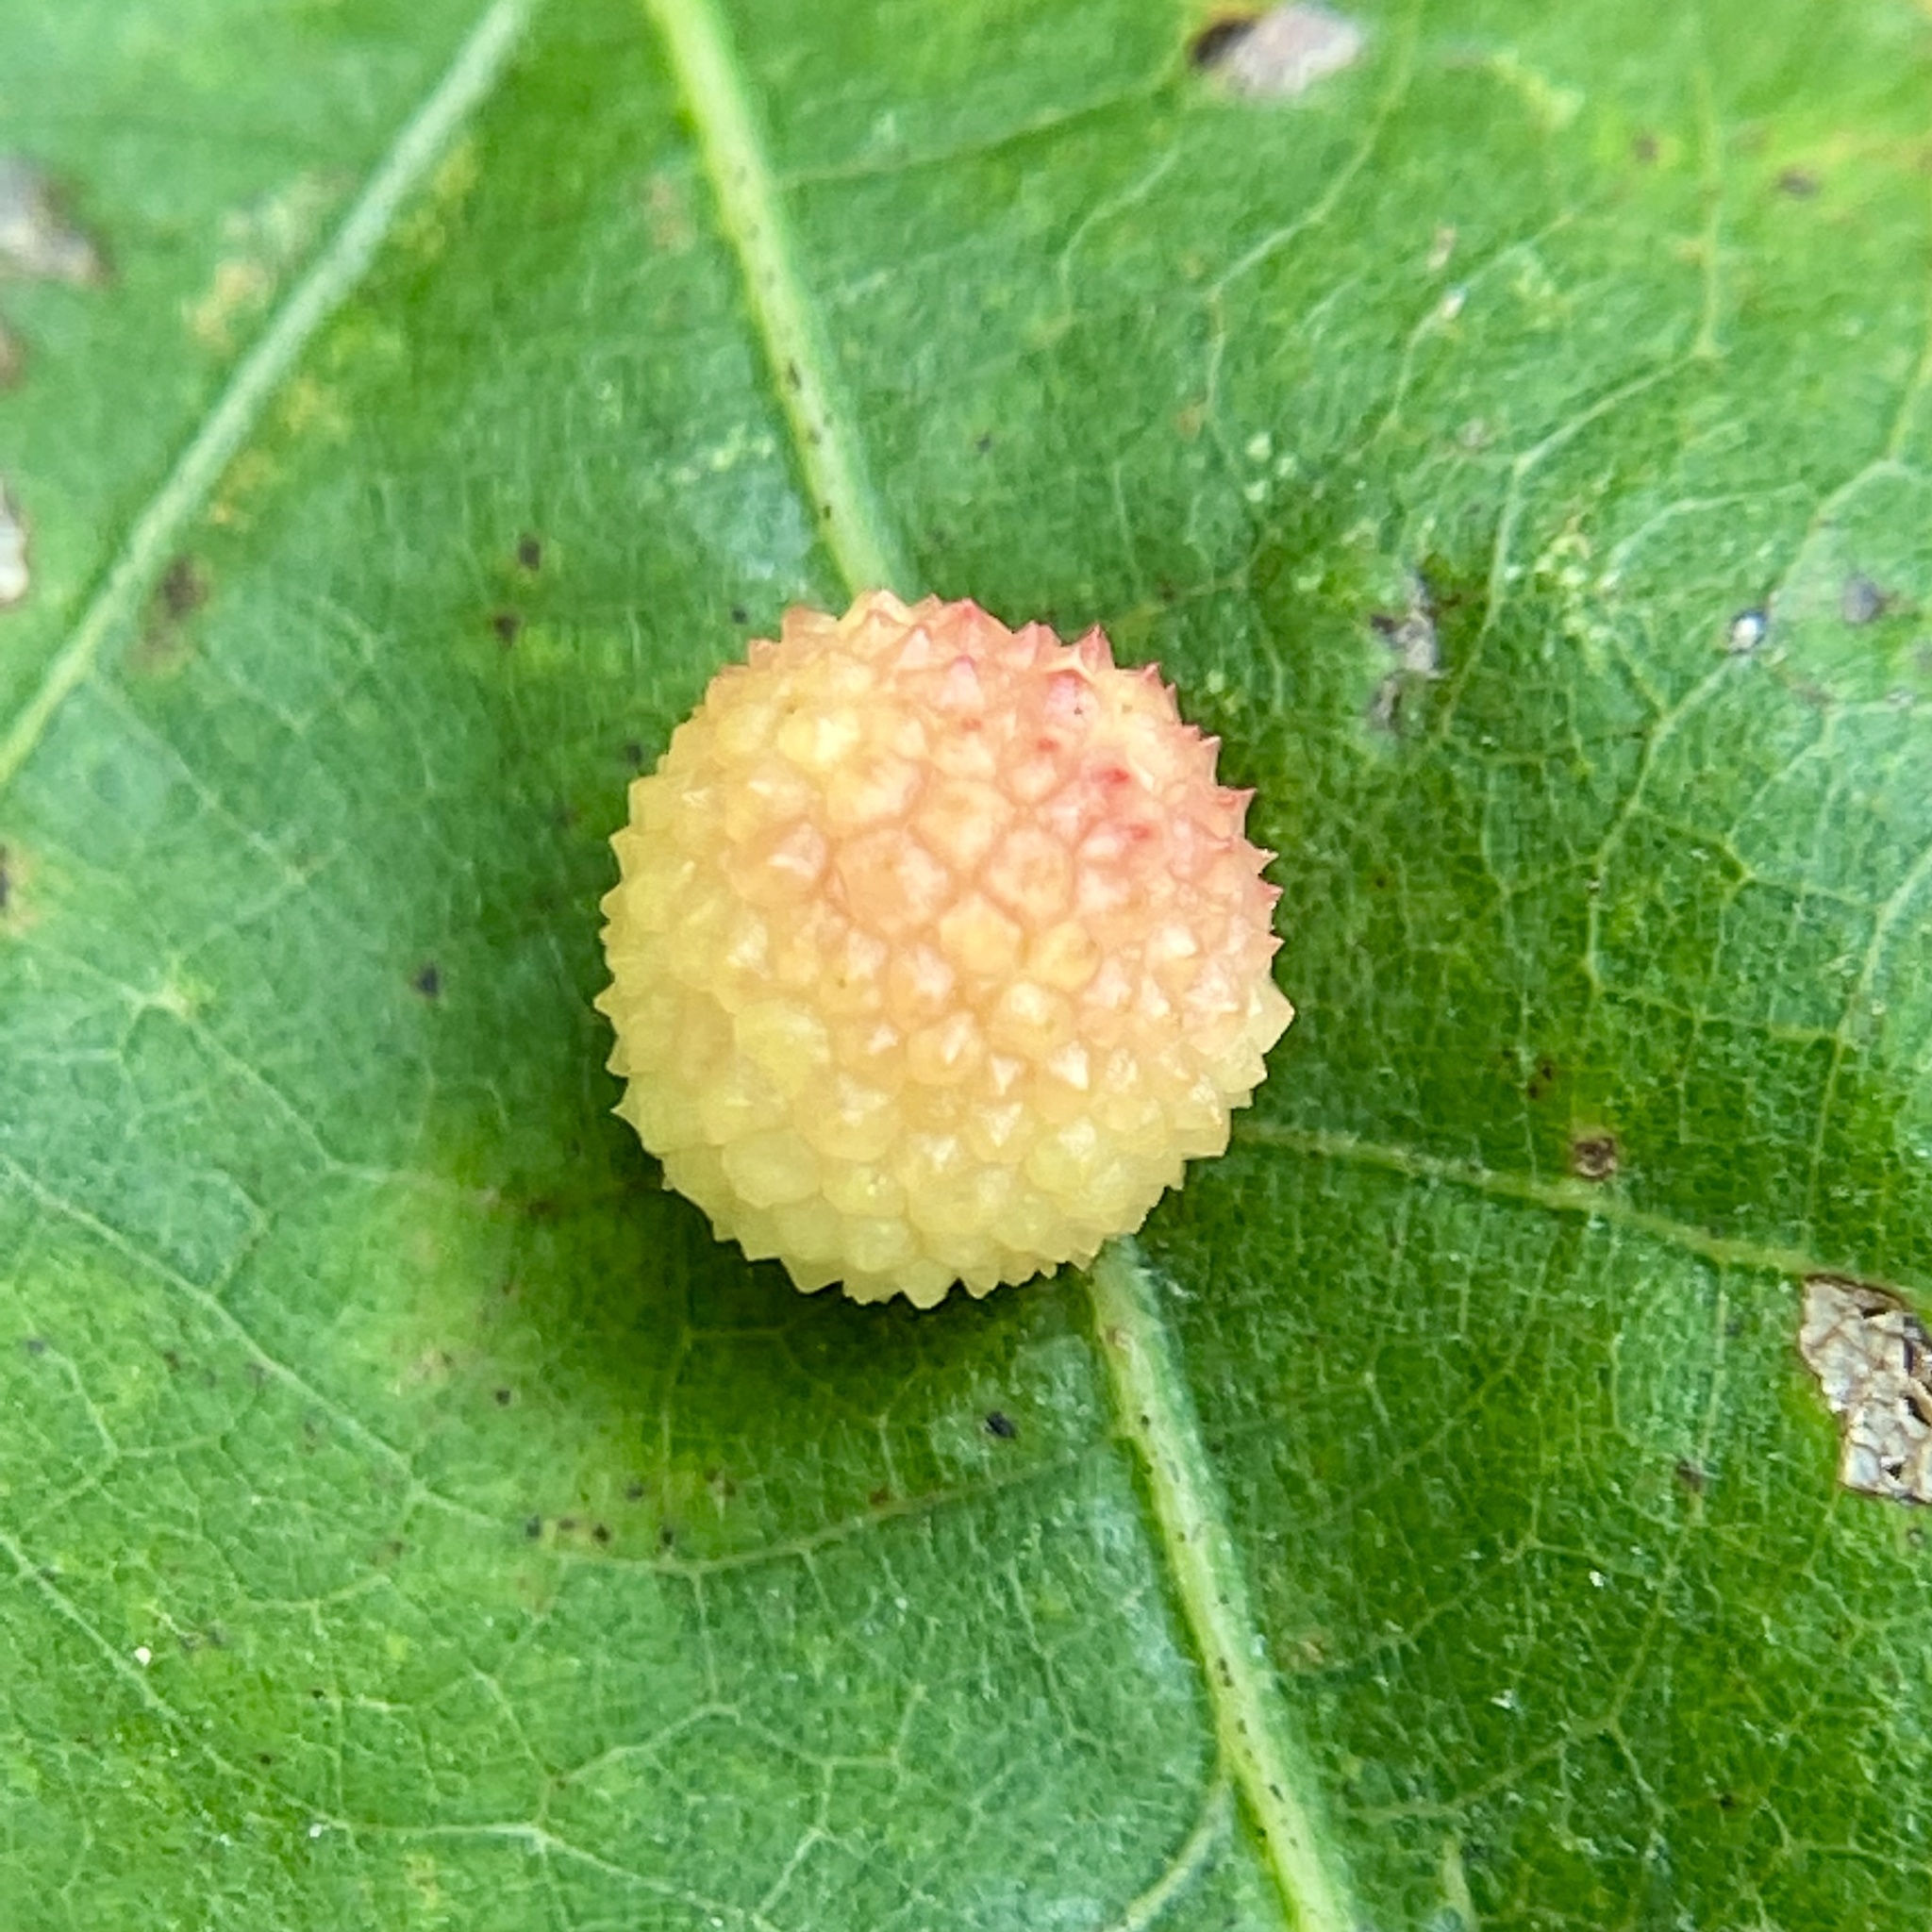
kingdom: Animalia
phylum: Arthropoda
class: Insecta
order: Hymenoptera
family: Cynipidae
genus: Acraspis
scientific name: Acraspis
